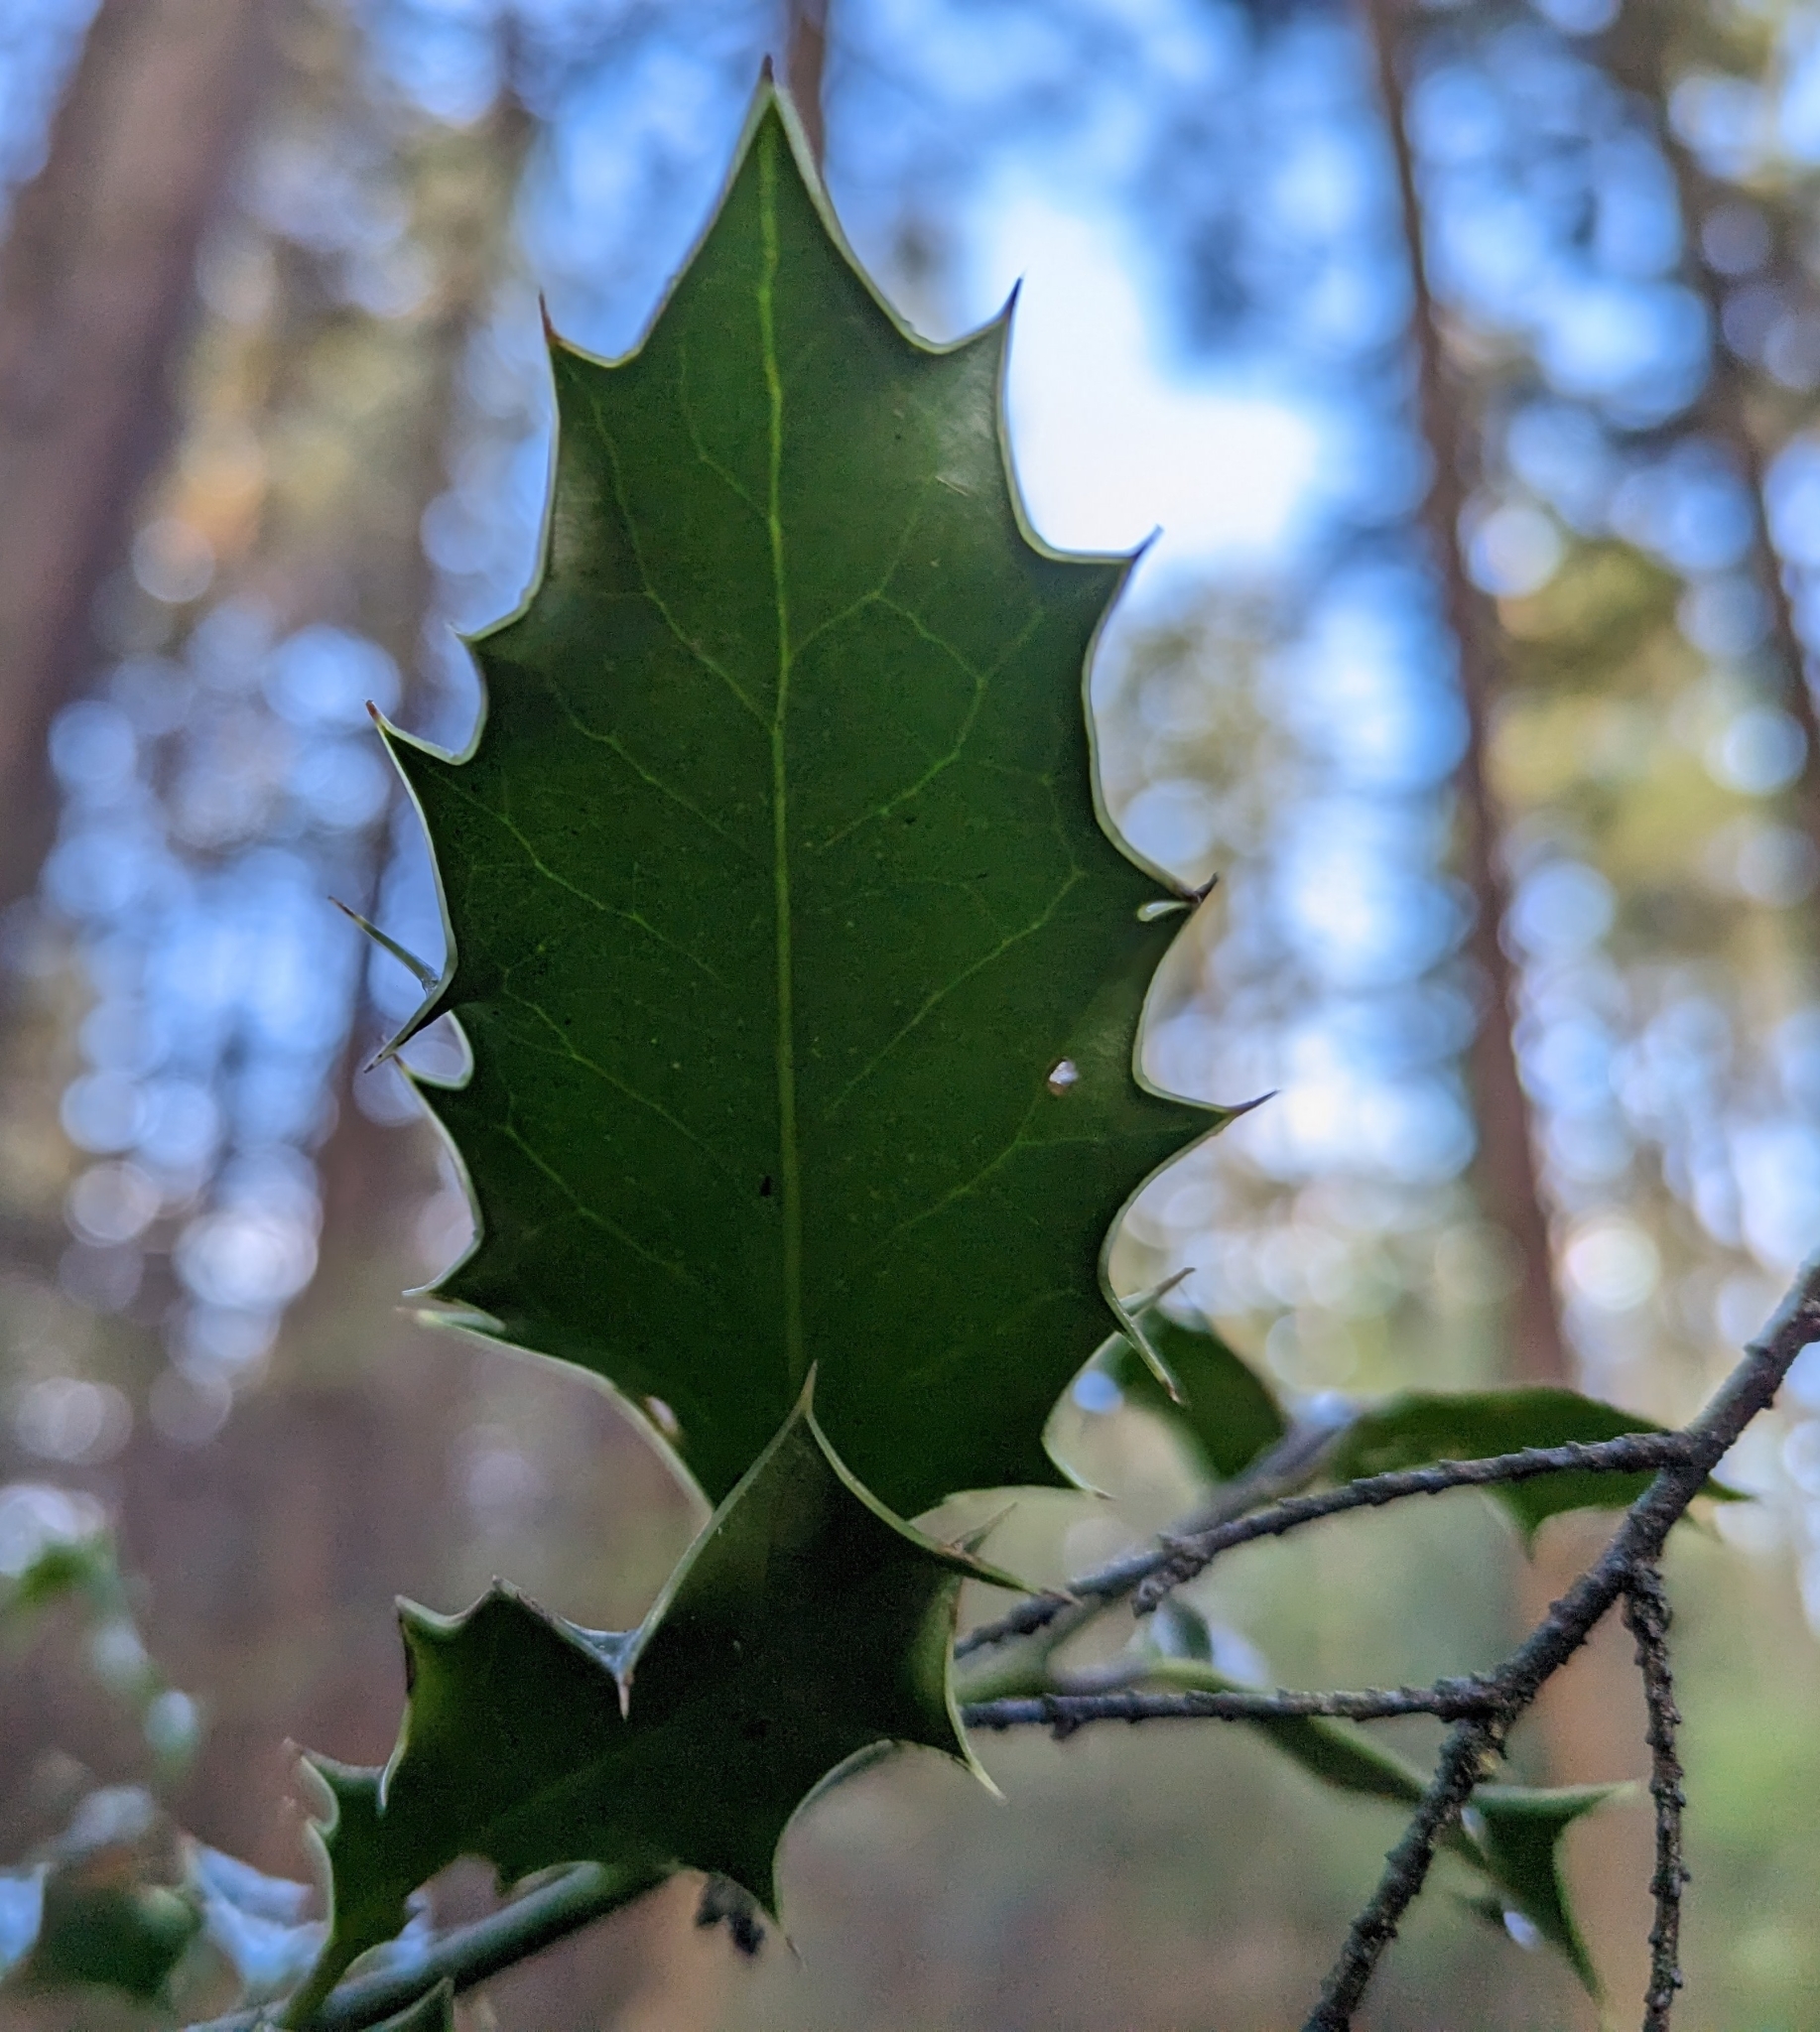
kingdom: Plantae
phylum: Tracheophyta
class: Magnoliopsida
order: Aquifoliales
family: Aquifoliaceae
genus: Ilex
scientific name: Ilex aquifolium
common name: English holly
